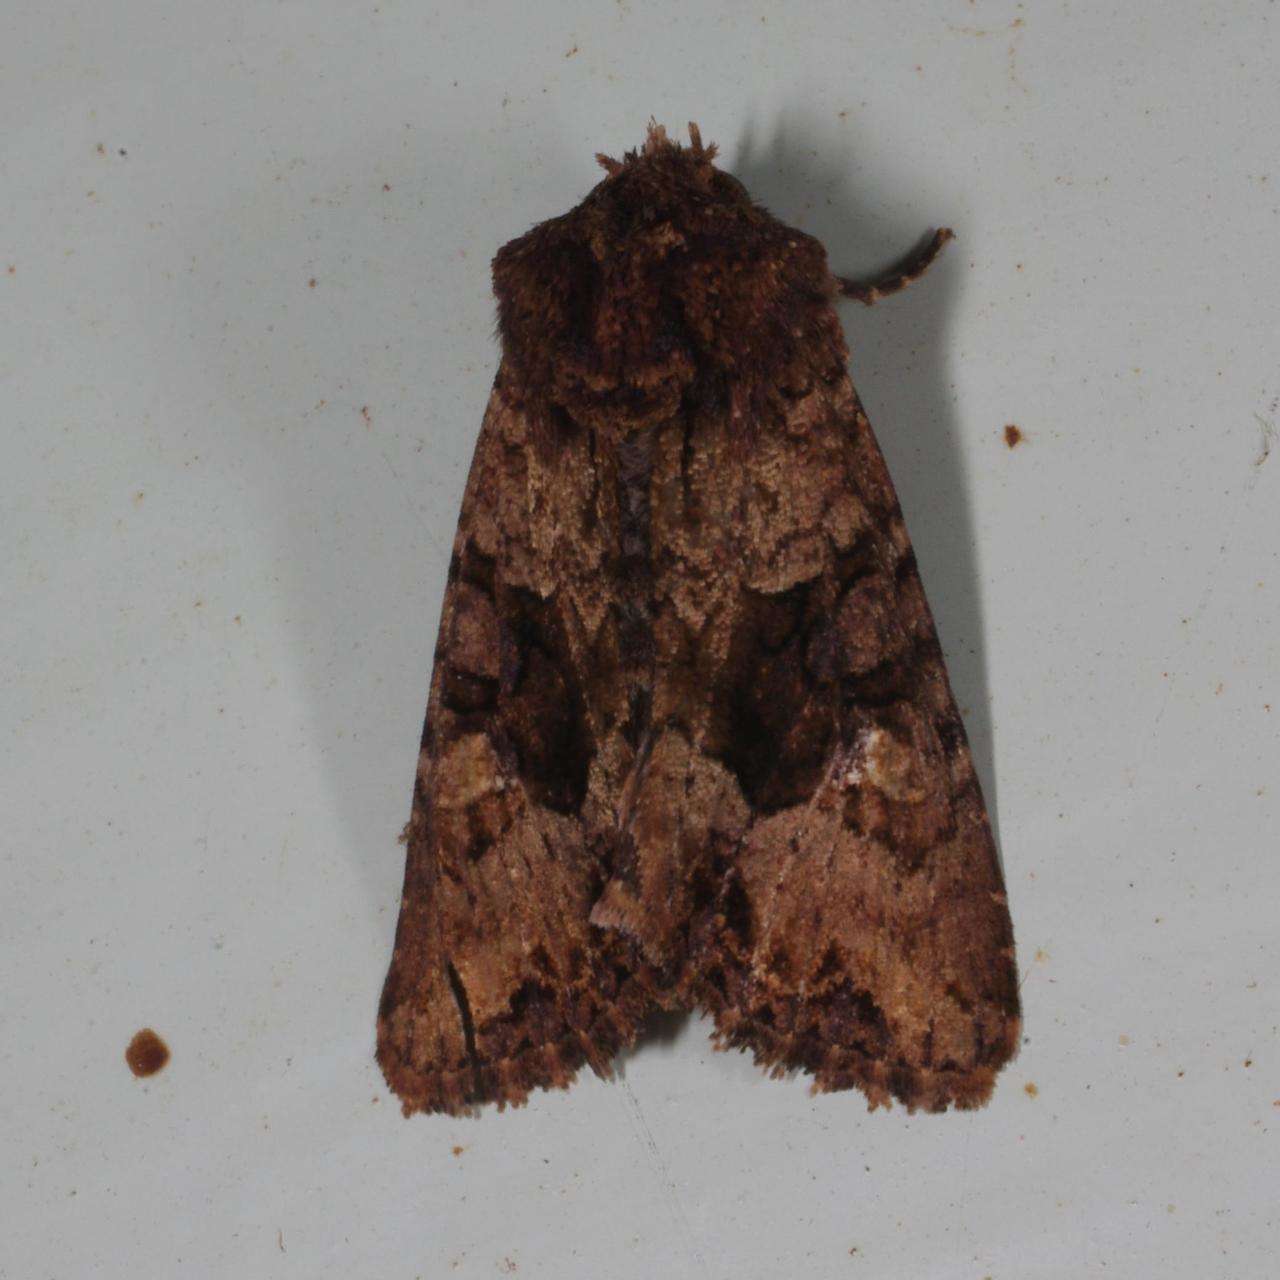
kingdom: Animalia
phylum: Arthropoda
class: Insecta
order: Lepidoptera
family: Noctuidae
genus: Neumichtis
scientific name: Neumichtis saliaris
